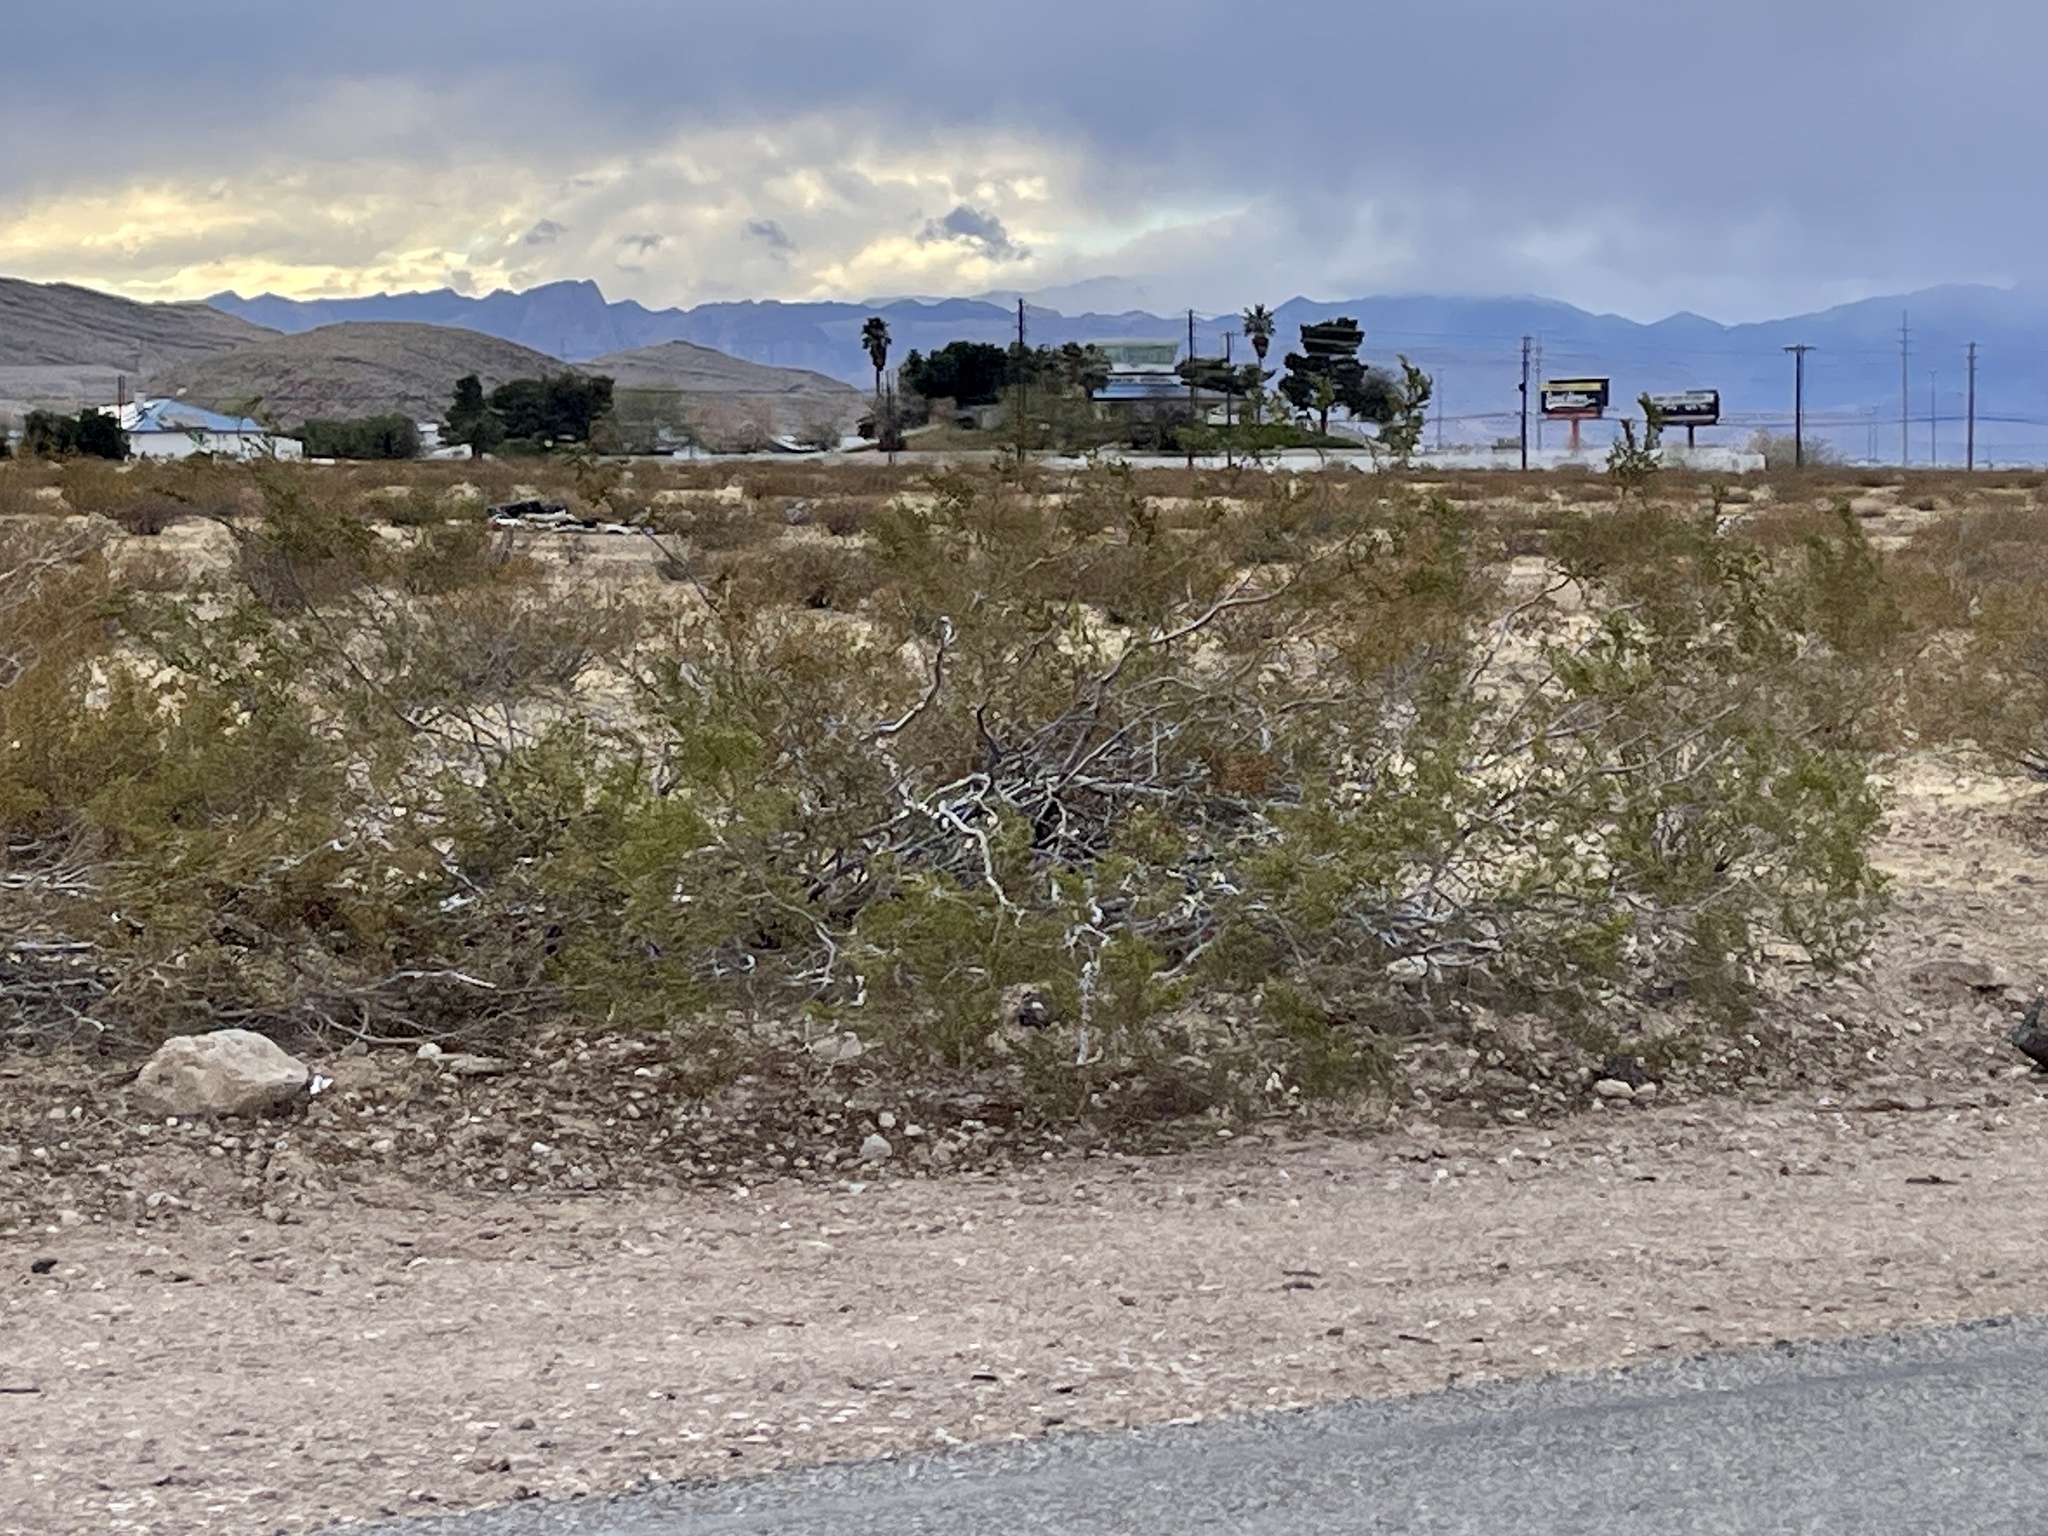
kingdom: Plantae
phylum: Tracheophyta
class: Magnoliopsida
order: Zygophyllales
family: Zygophyllaceae
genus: Larrea
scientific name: Larrea tridentata
